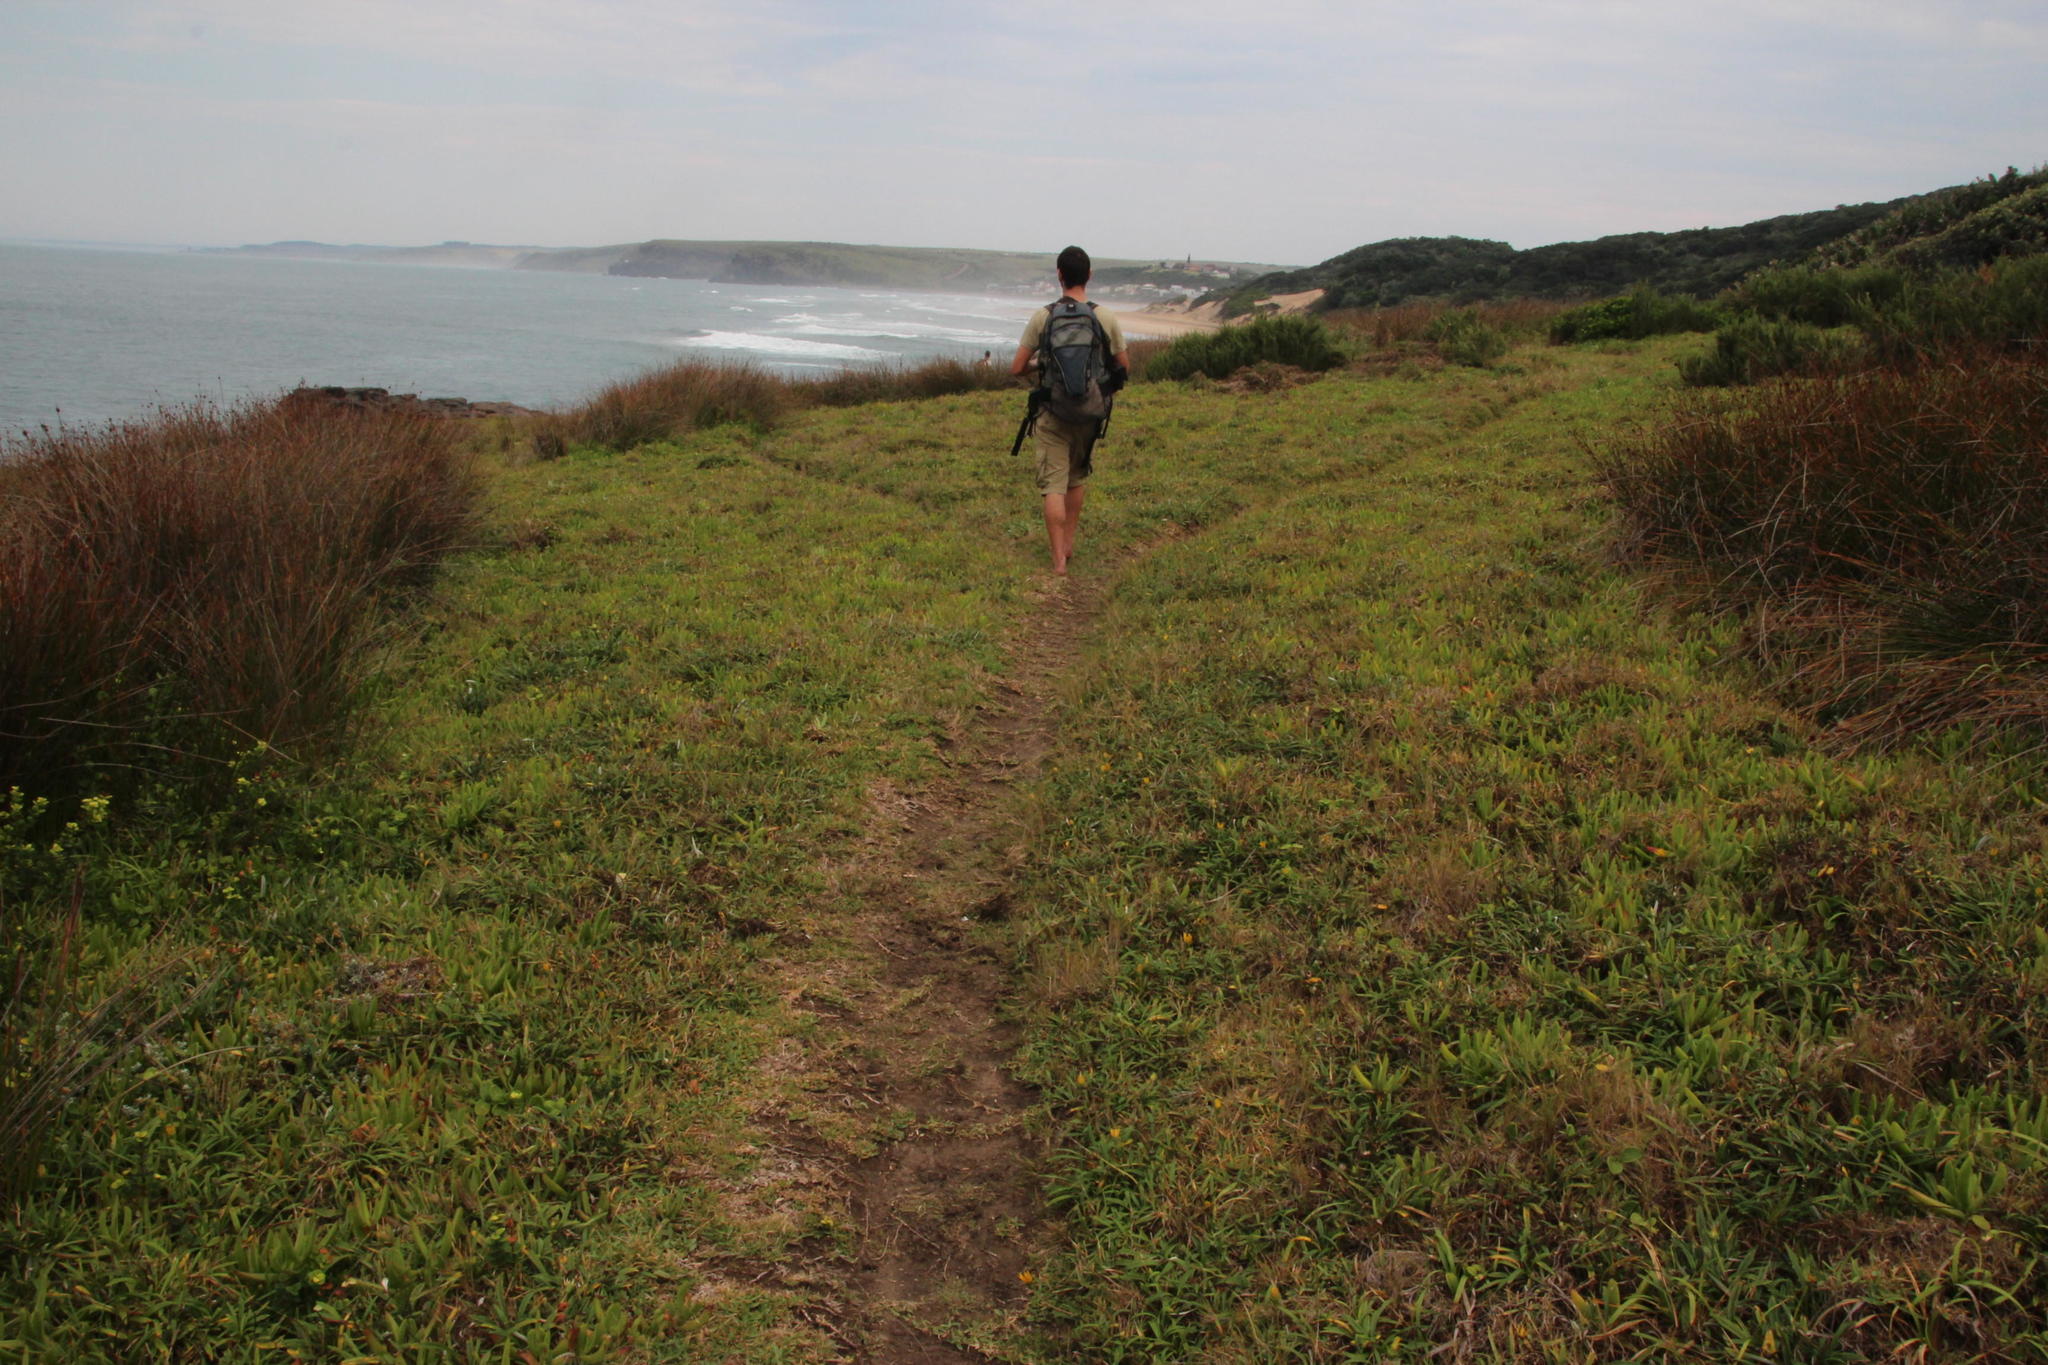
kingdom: Plantae
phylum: Tracheophyta
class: Magnoliopsida
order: Asterales
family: Asteraceae
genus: Gazania
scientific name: Gazania rigens
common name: Treasureflower
